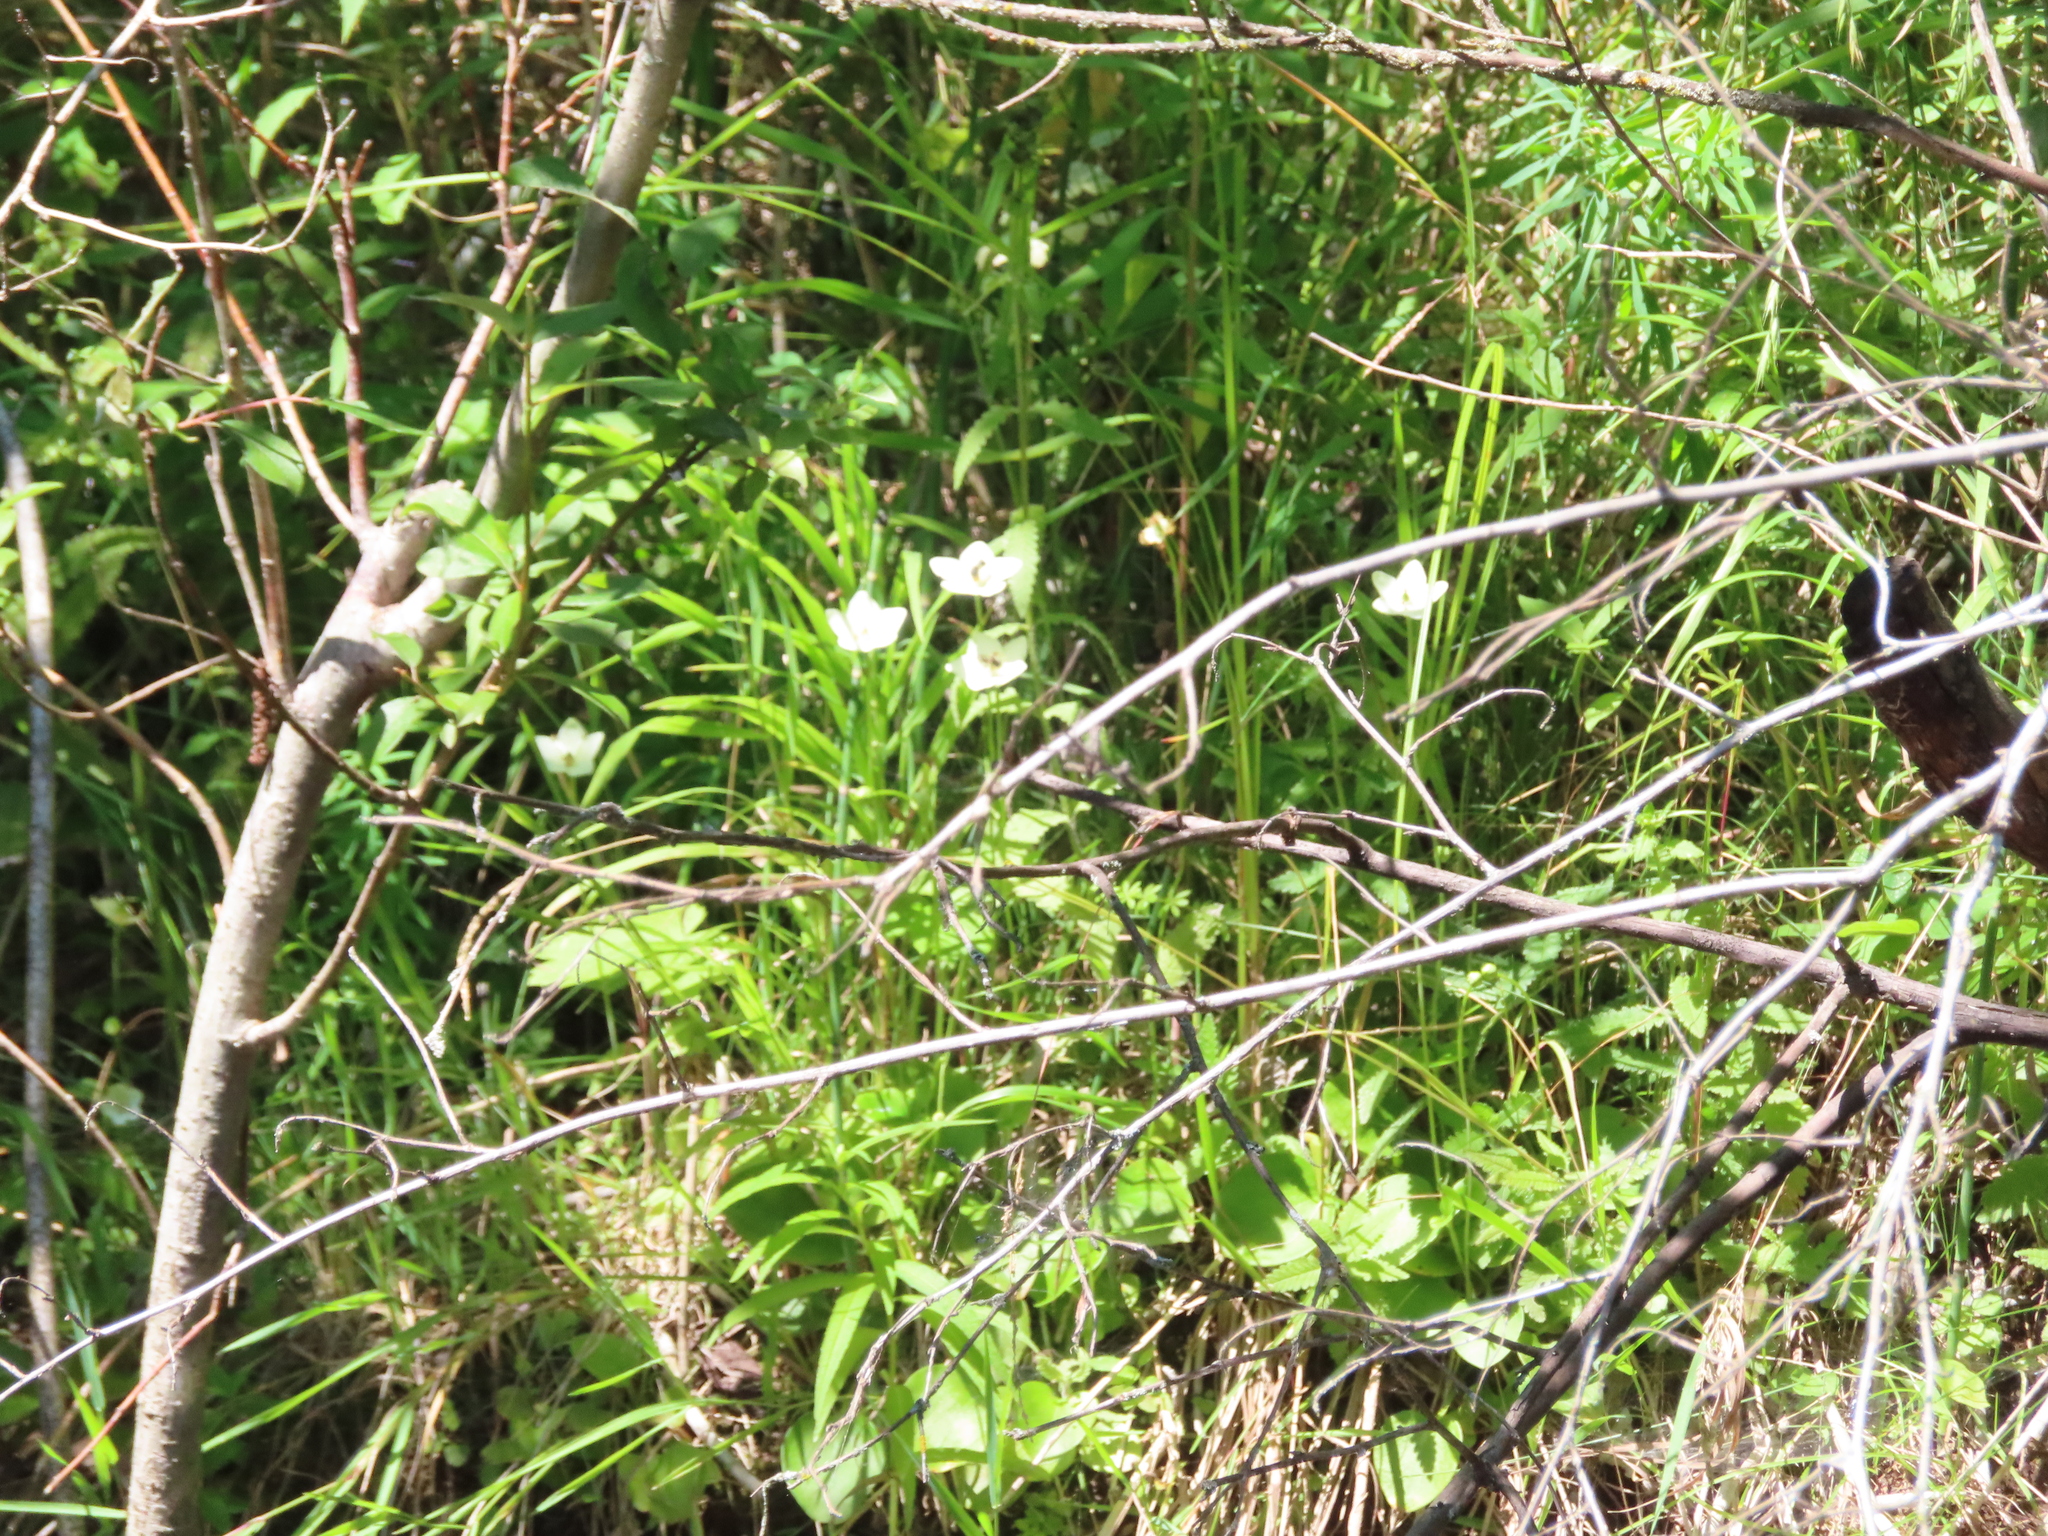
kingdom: Plantae
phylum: Tracheophyta
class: Magnoliopsida
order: Celastrales
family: Parnassiaceae
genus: Parnassia
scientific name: Parnassia glauca
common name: American grass-of-parnassus
